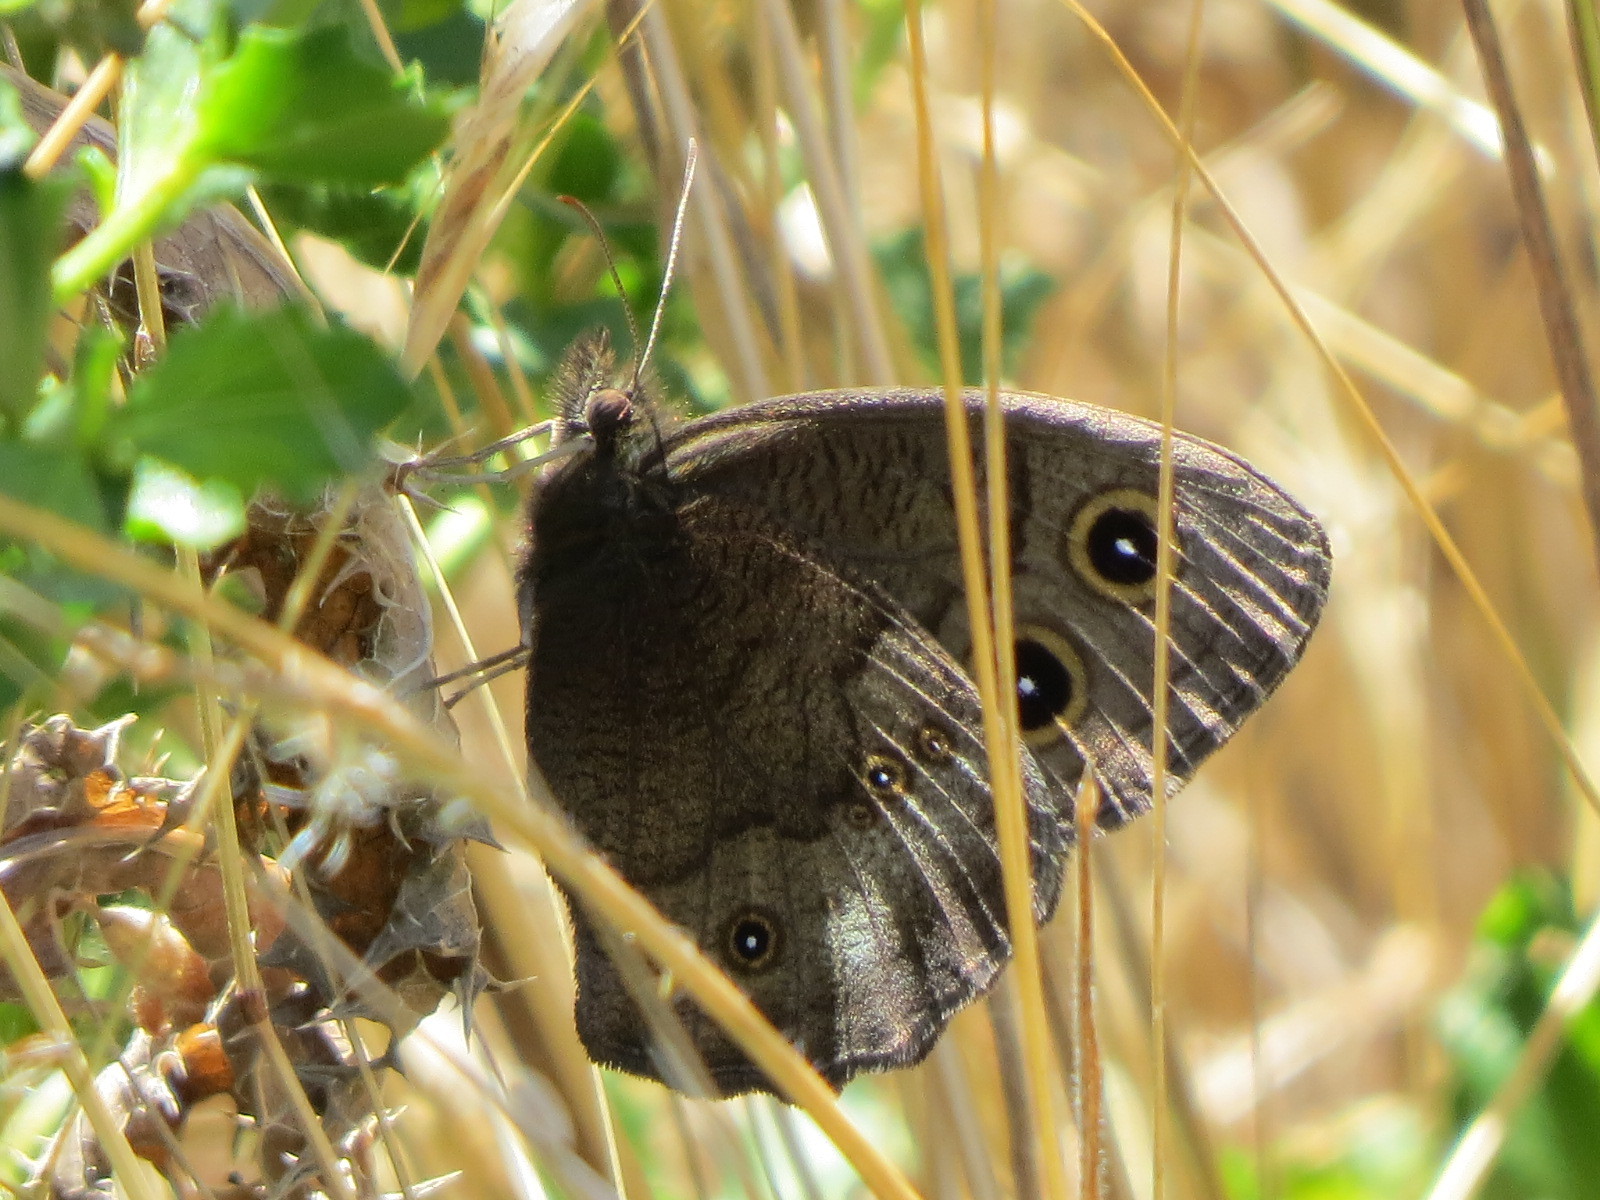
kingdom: Animalia
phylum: Arthropoda
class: Insecta
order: Lepidoptera
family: Nymphalidae
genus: Cercyonis
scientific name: Cercyonis pegala
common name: Common wood-nymph
